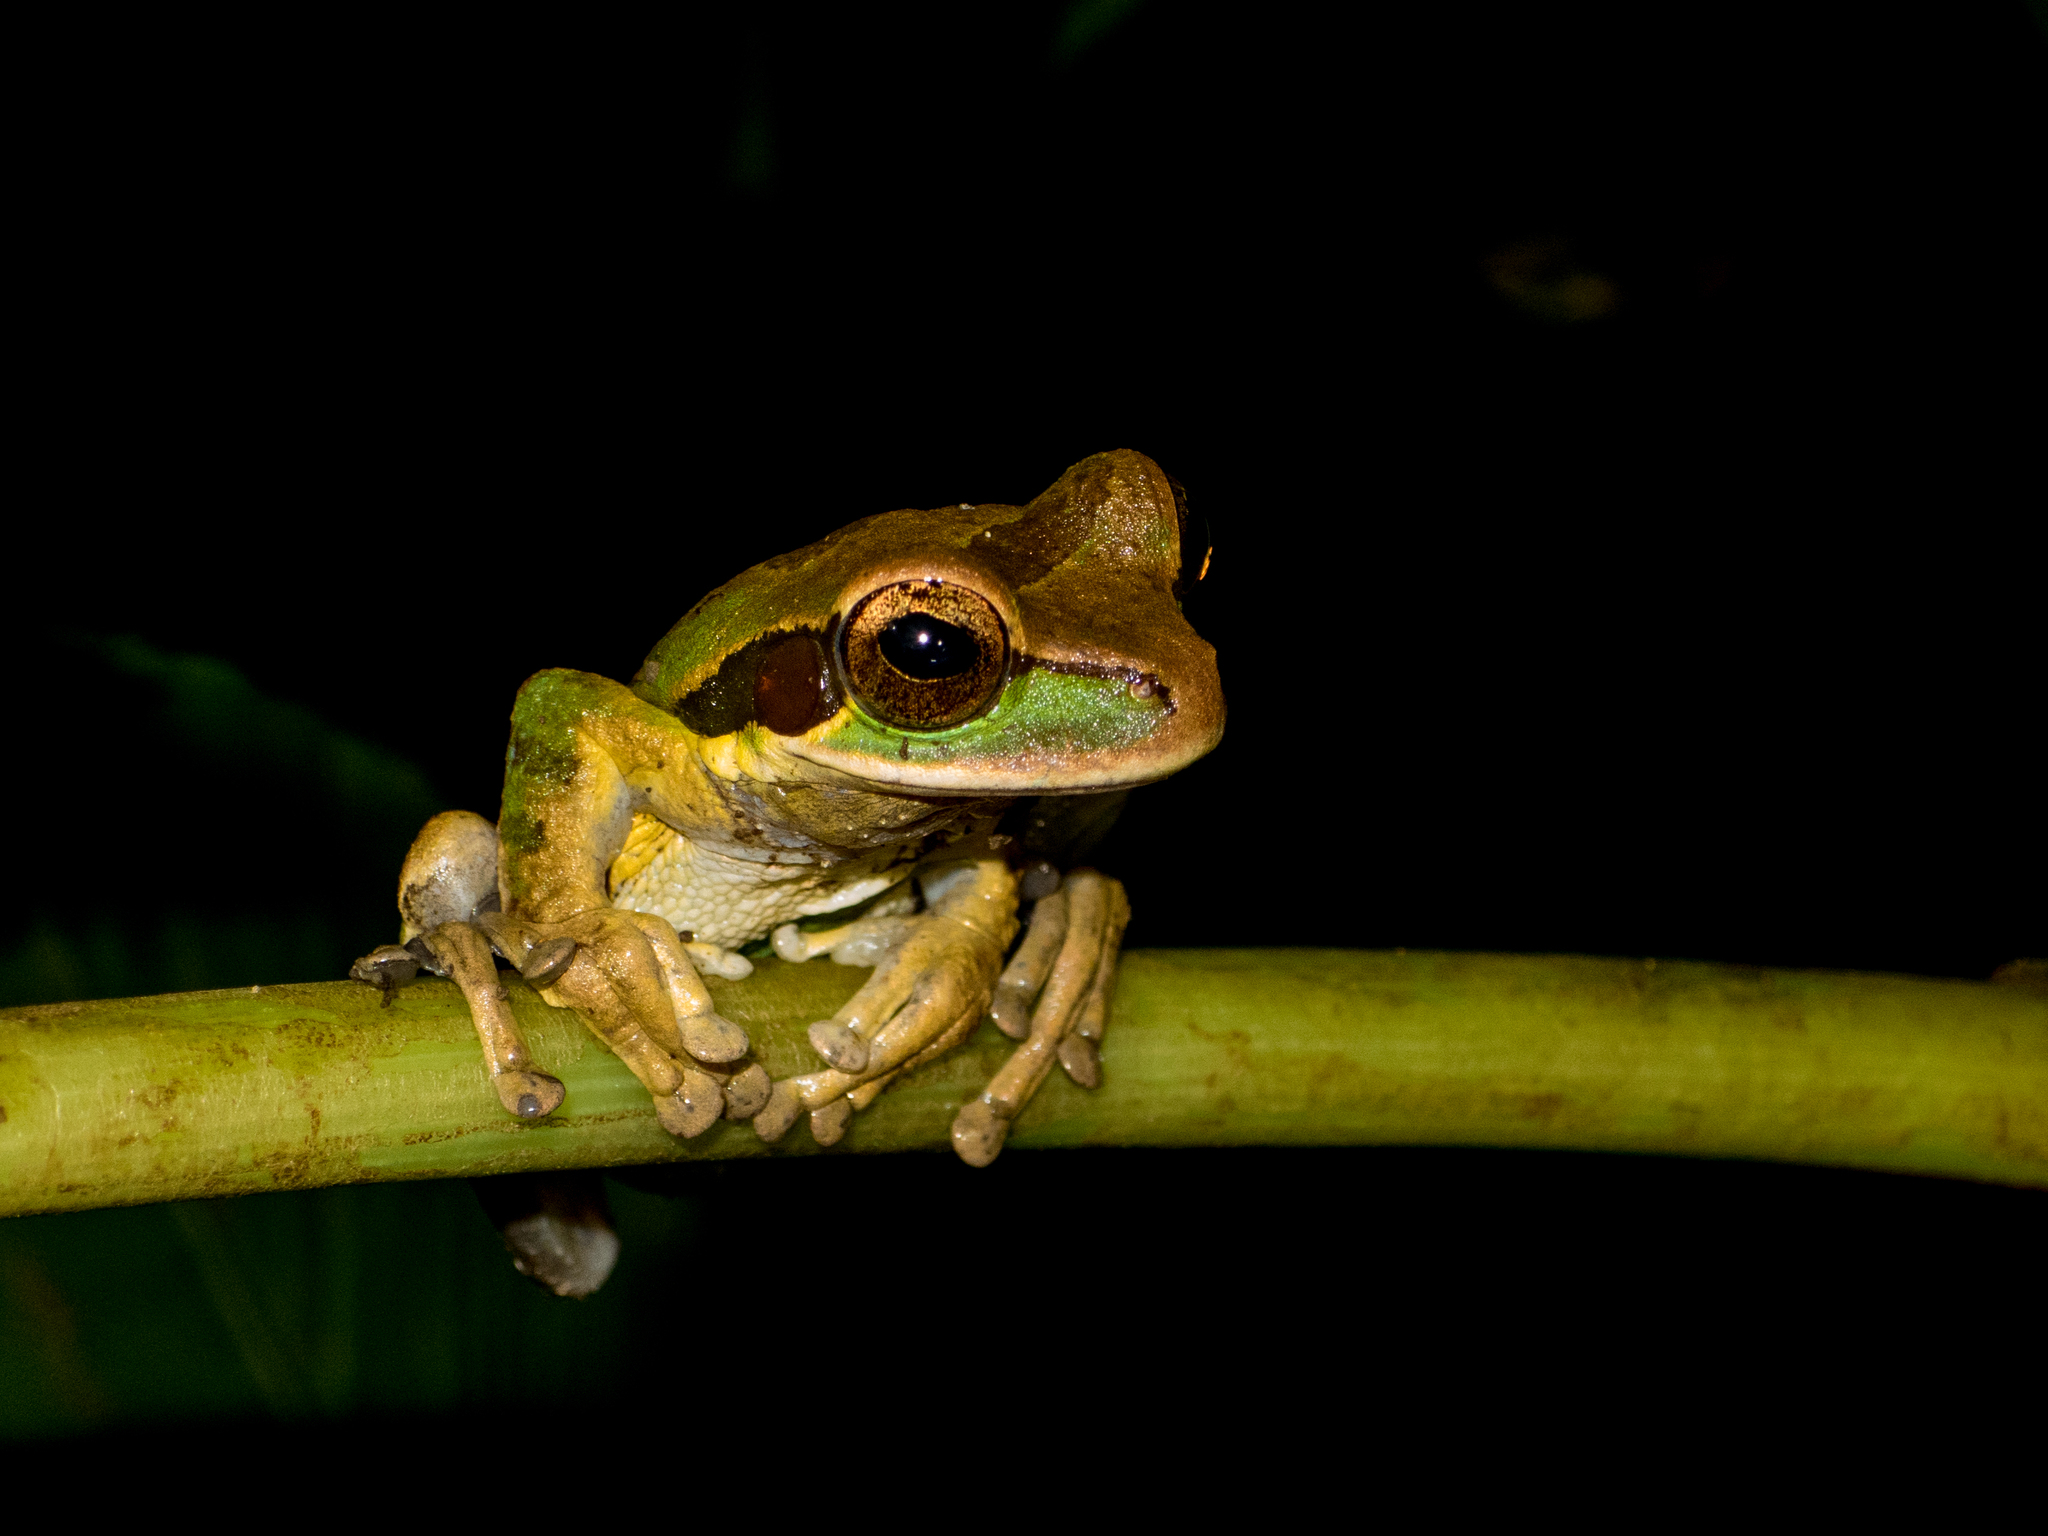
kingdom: Animalia
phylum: Chordata
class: Amphibia
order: Anura
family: Hylidae
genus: Smilisca
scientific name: Smilisca phaeota
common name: Central american smilisca
